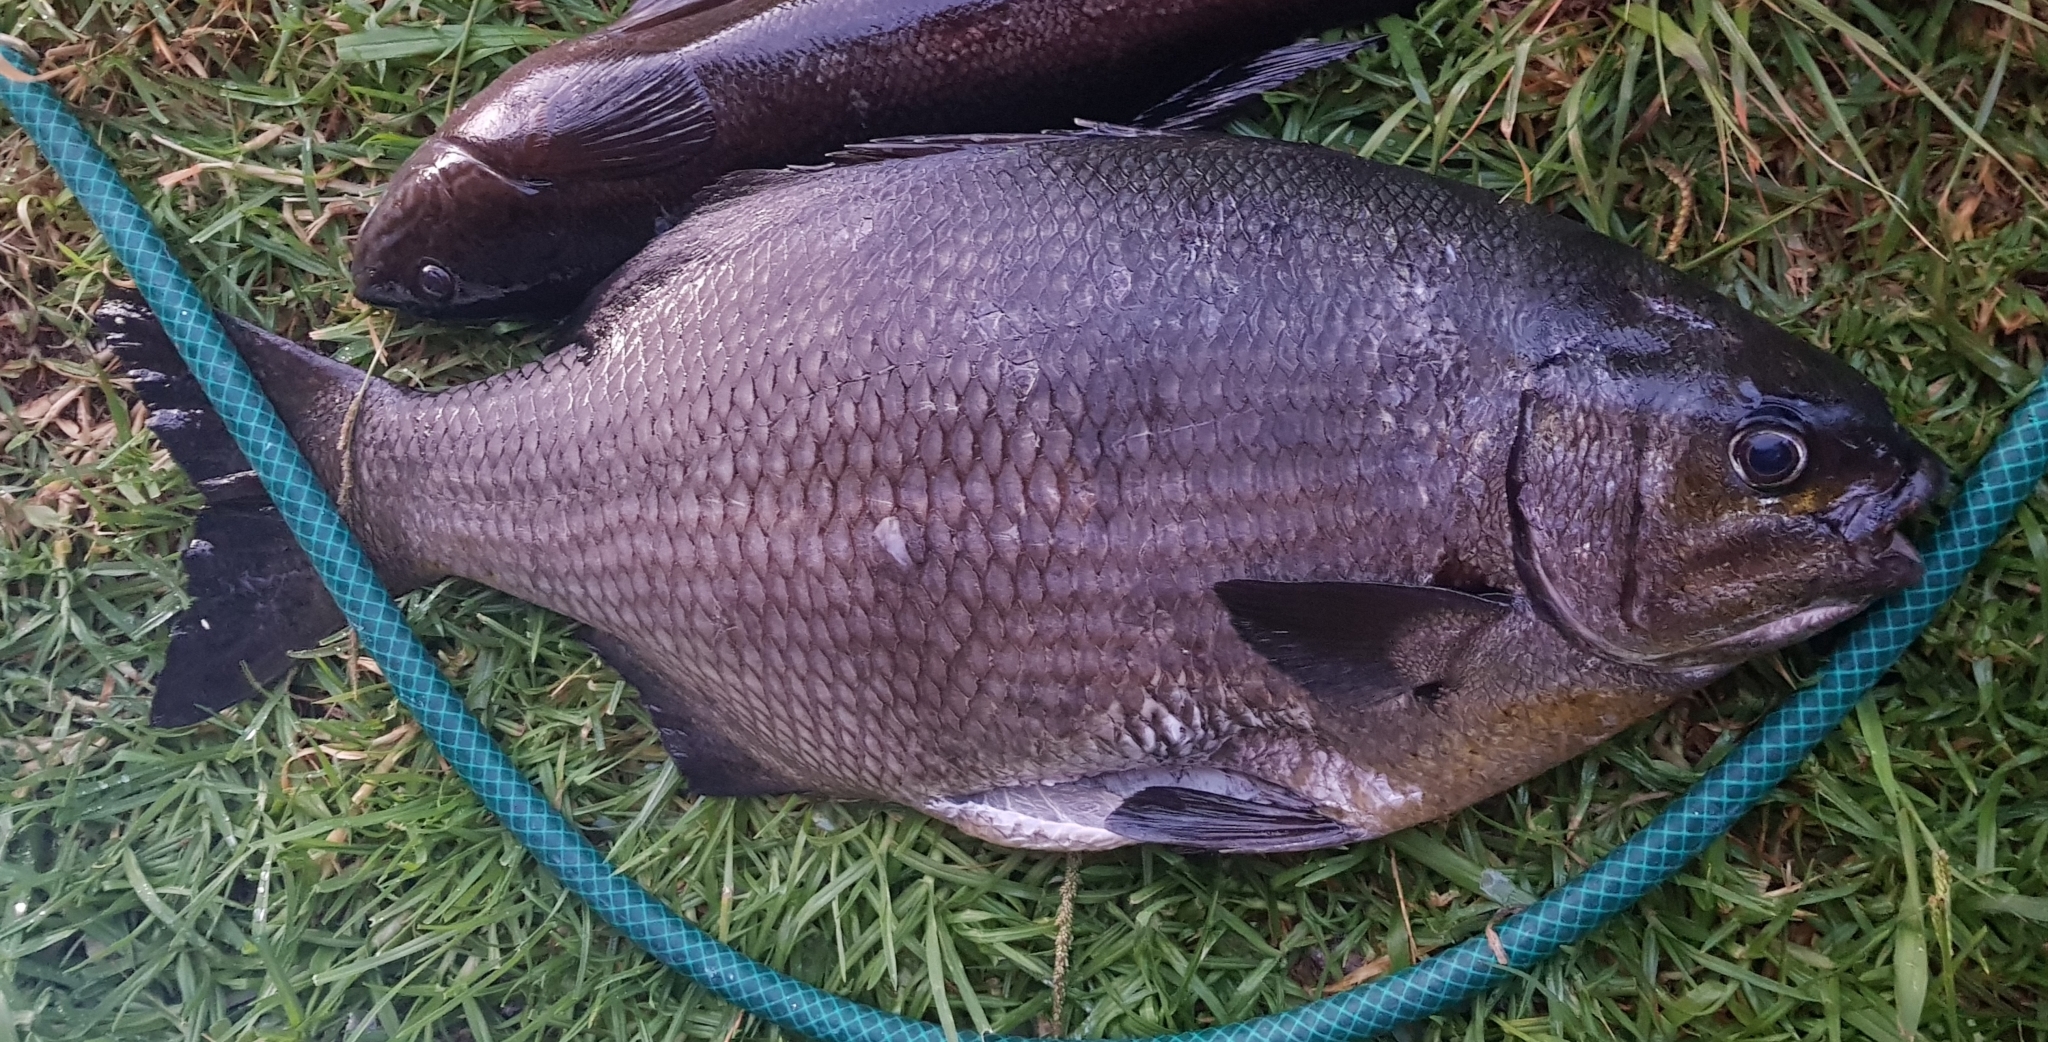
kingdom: Animalia
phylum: Chordata
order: Perciformes
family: Kyphosidae
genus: Kyphosus
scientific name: Kyphosus sydneyanus
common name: Silver drummer
